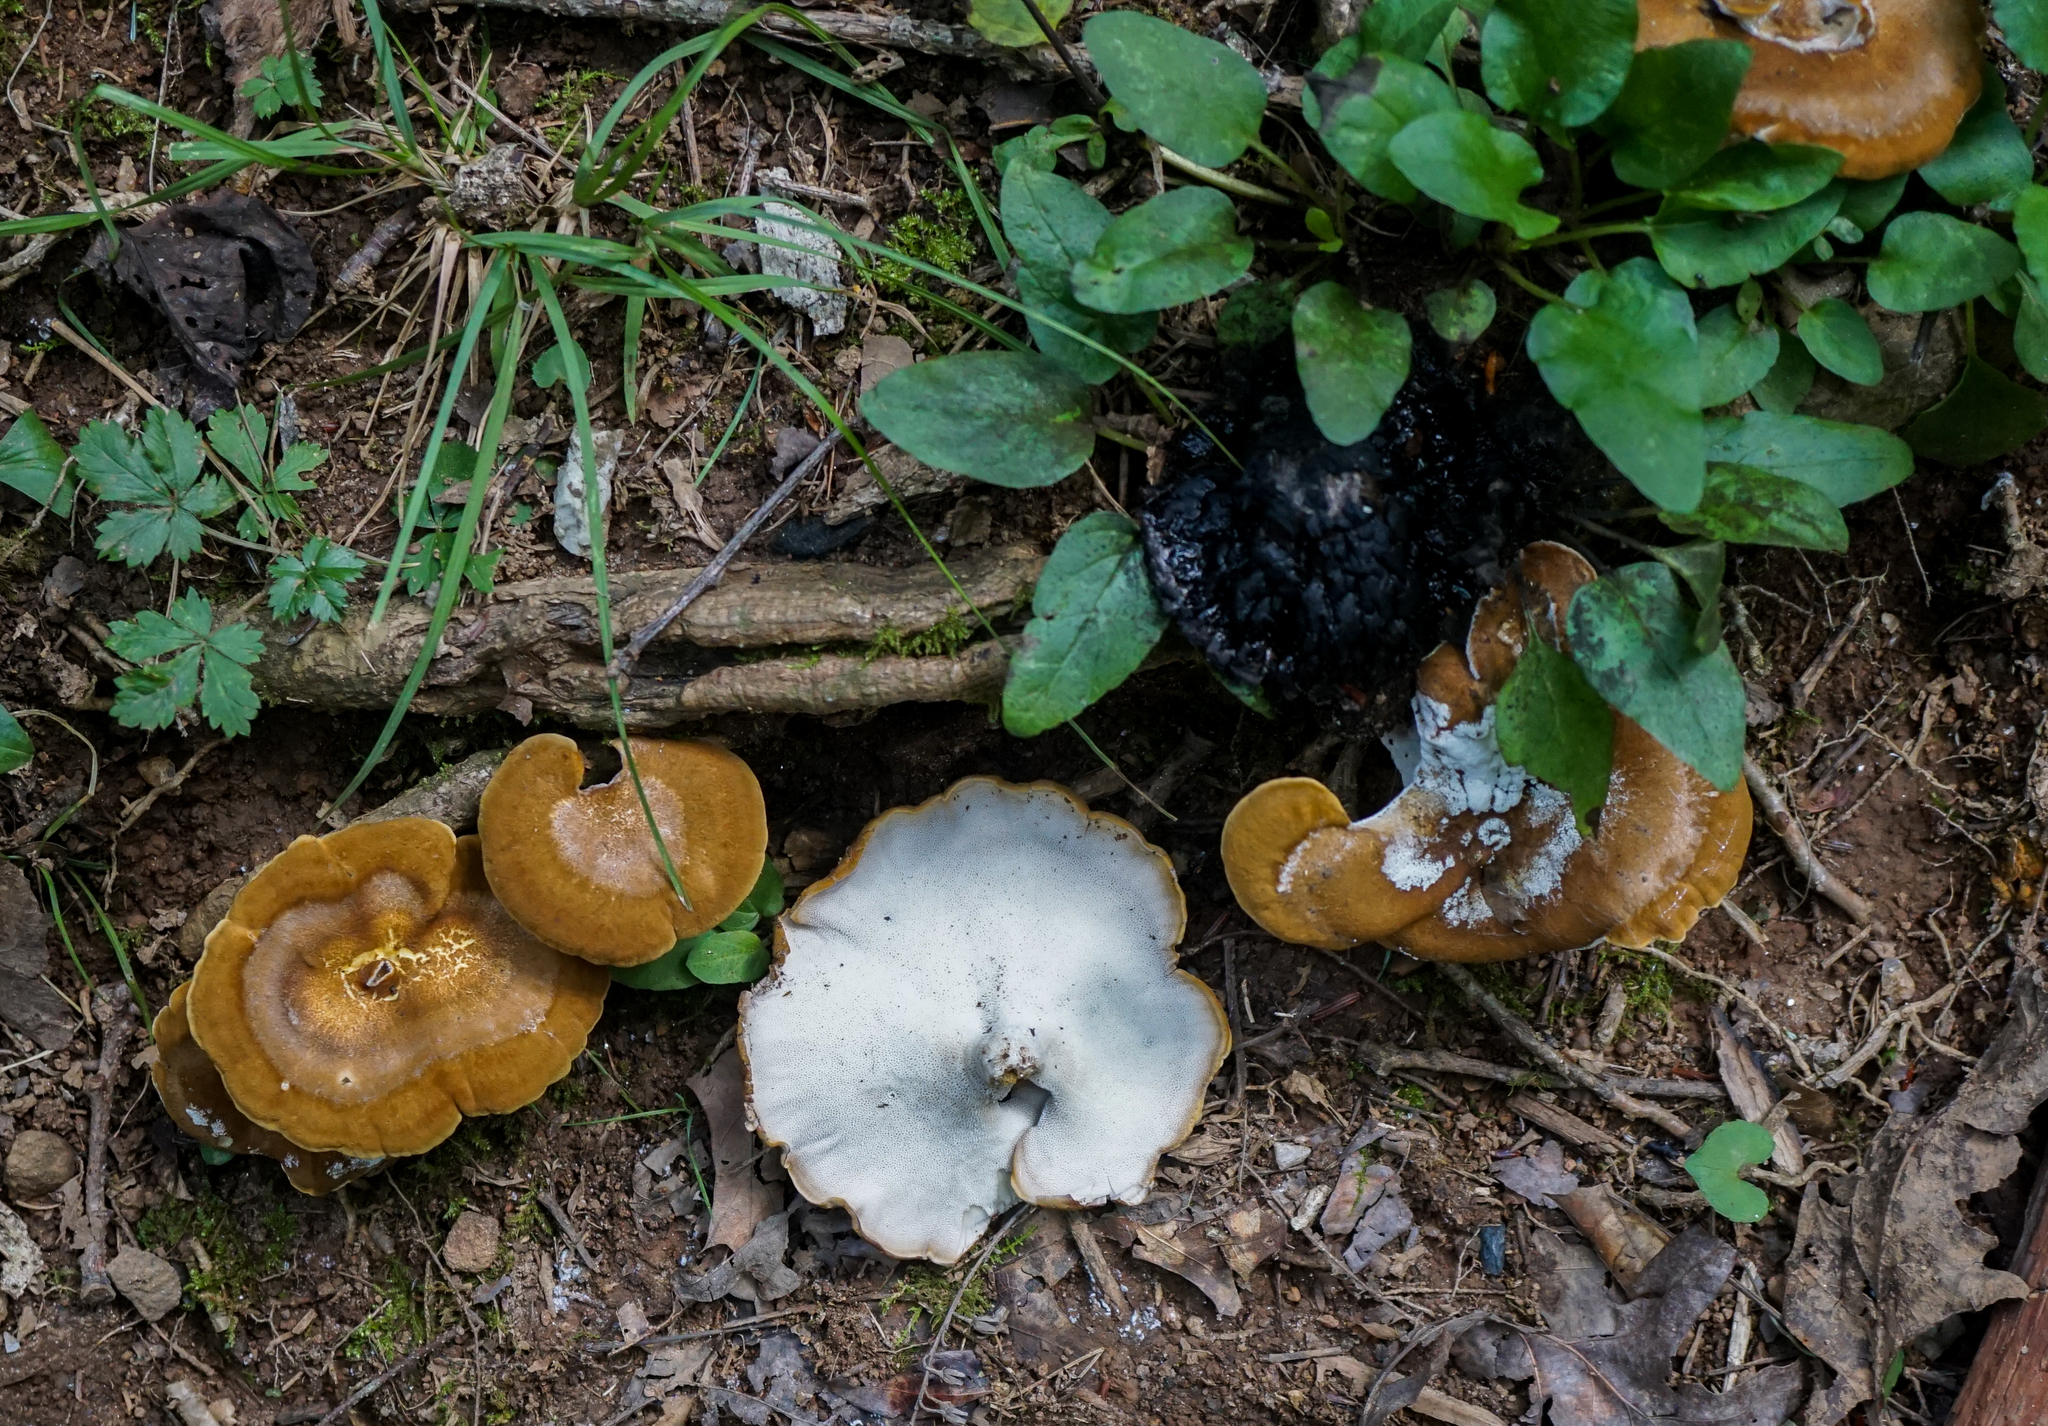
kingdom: Fungi
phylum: Basidiomycota
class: Agaricomycetes
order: Russulales
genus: Laeticutis
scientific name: Laeticutis cristata
